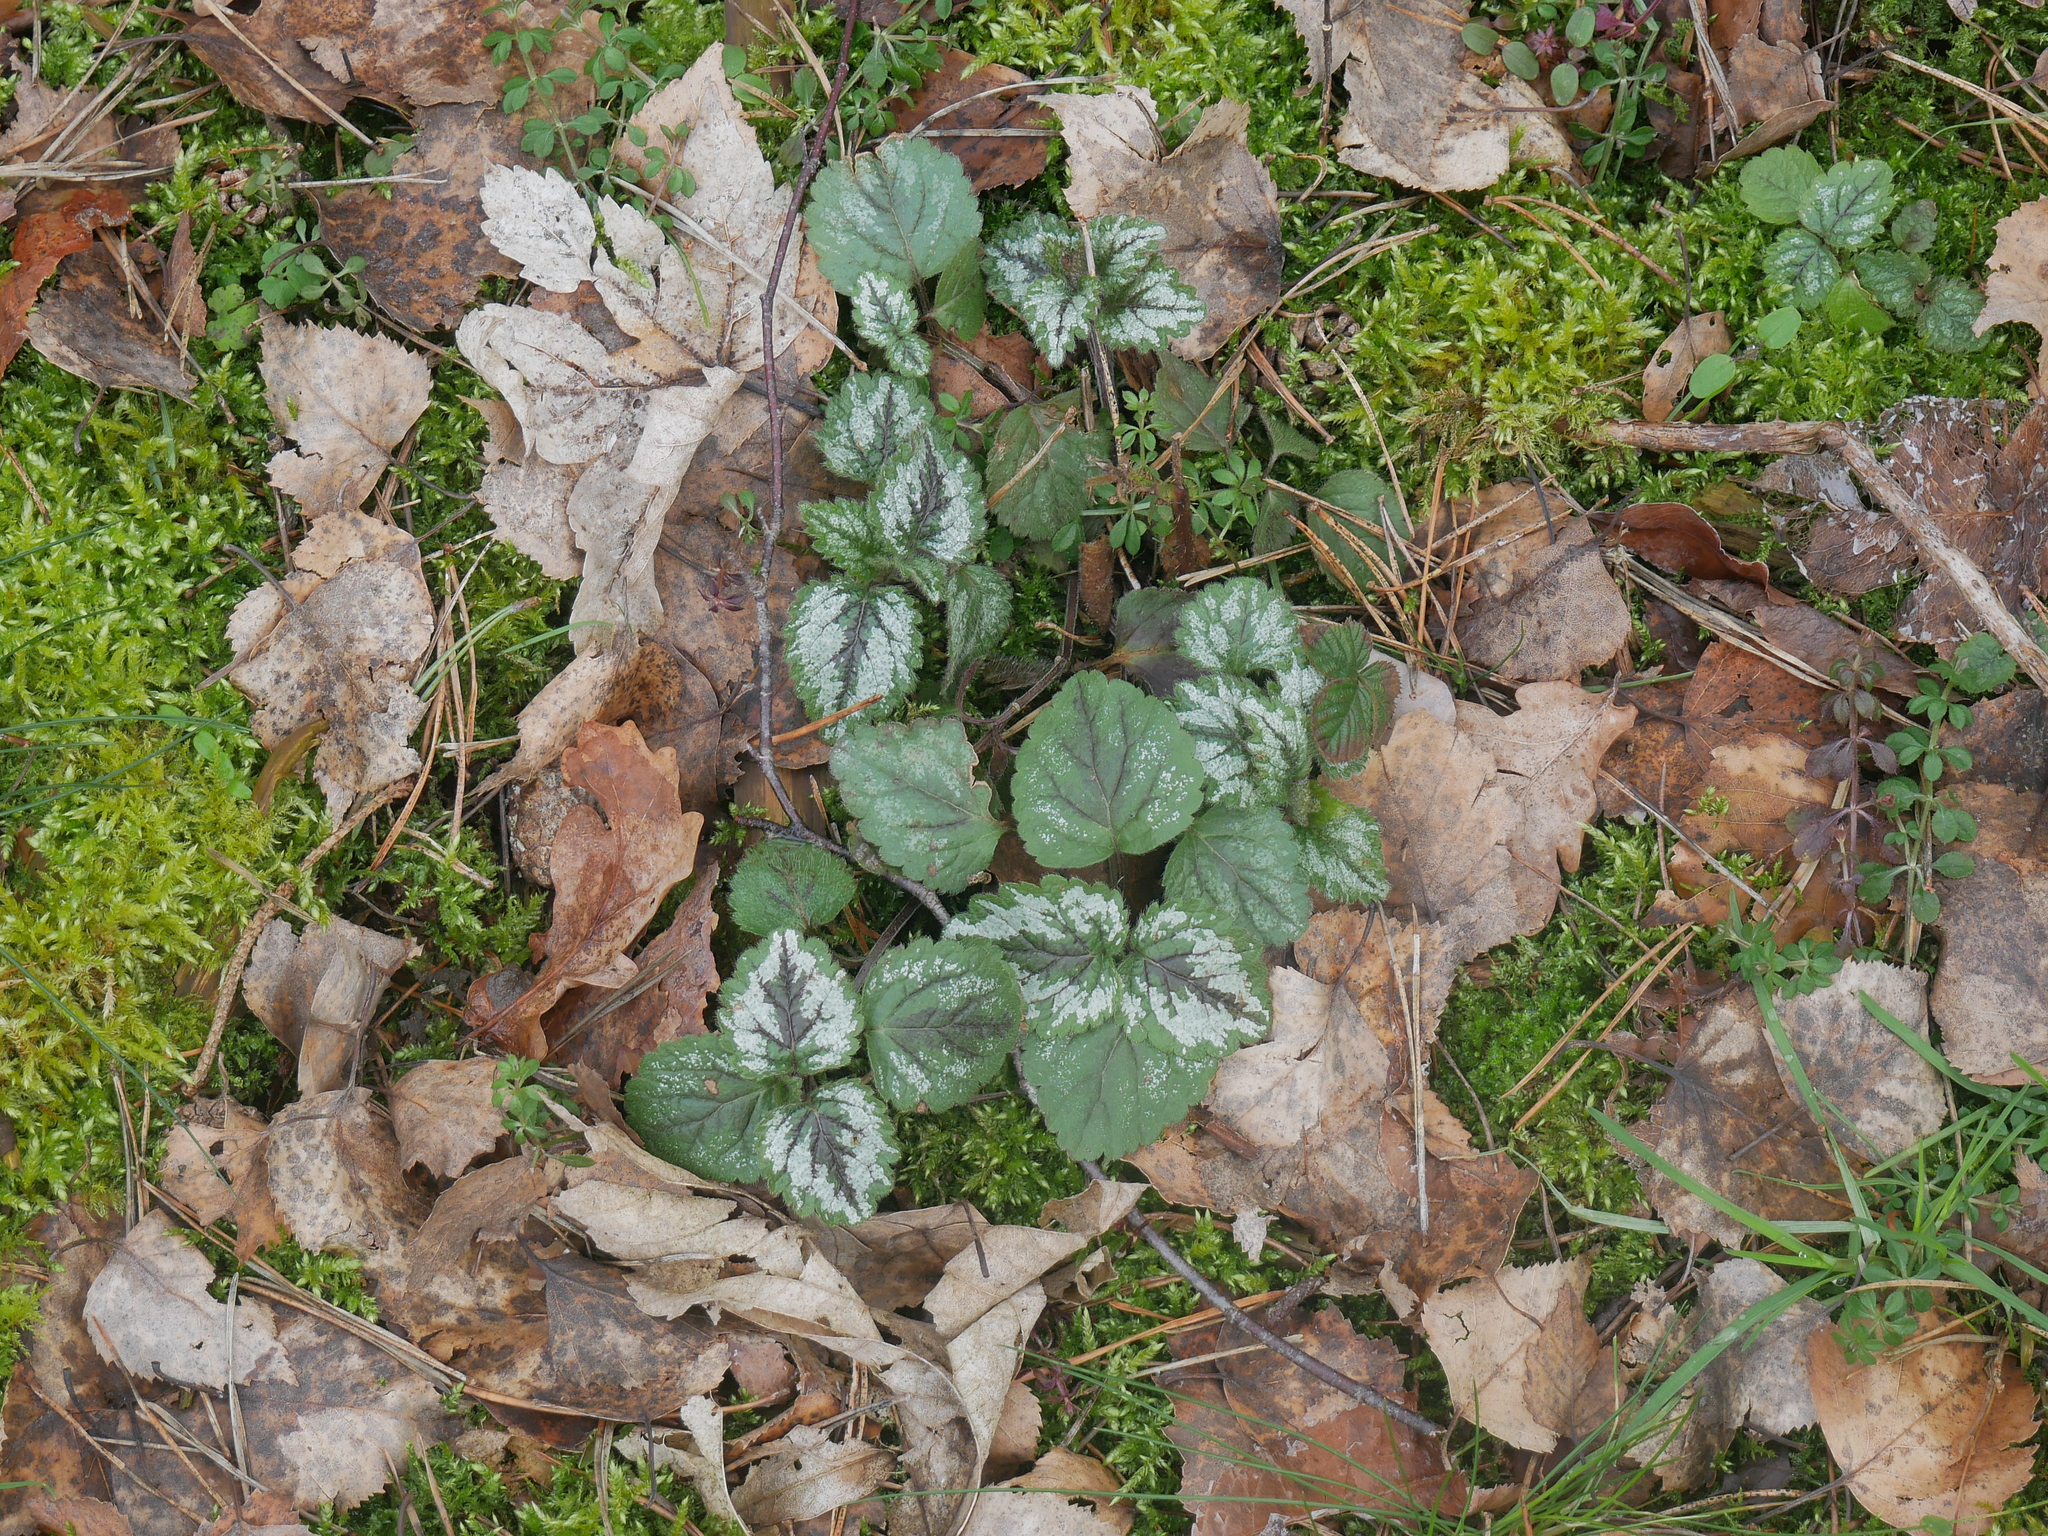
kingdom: Plantae
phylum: Tracheophyta
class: Magnoliopsida
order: Lamiales
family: Lamiaceae
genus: Lamium
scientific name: Lamium galeobdolon
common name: Yellow archangel
